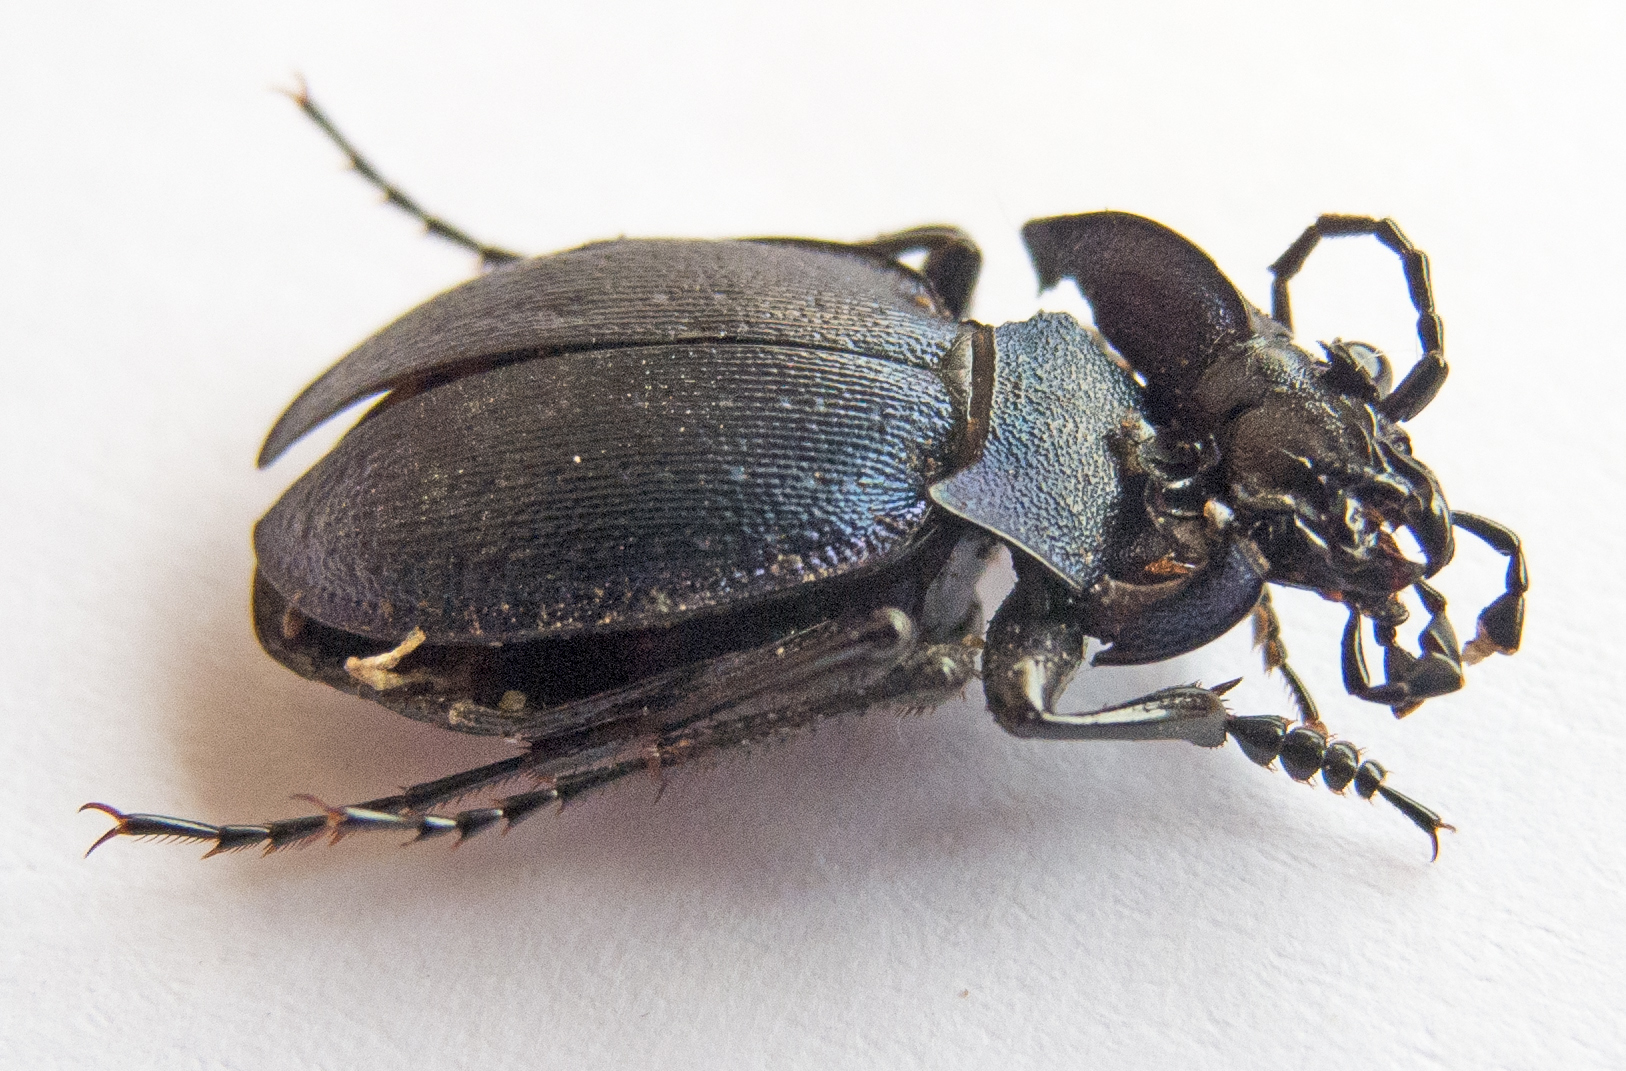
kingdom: Animalia
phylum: Arthropoda
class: Insecta
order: Coleoptera
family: Carabidae
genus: Carabus
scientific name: Carabus wiedemanni
